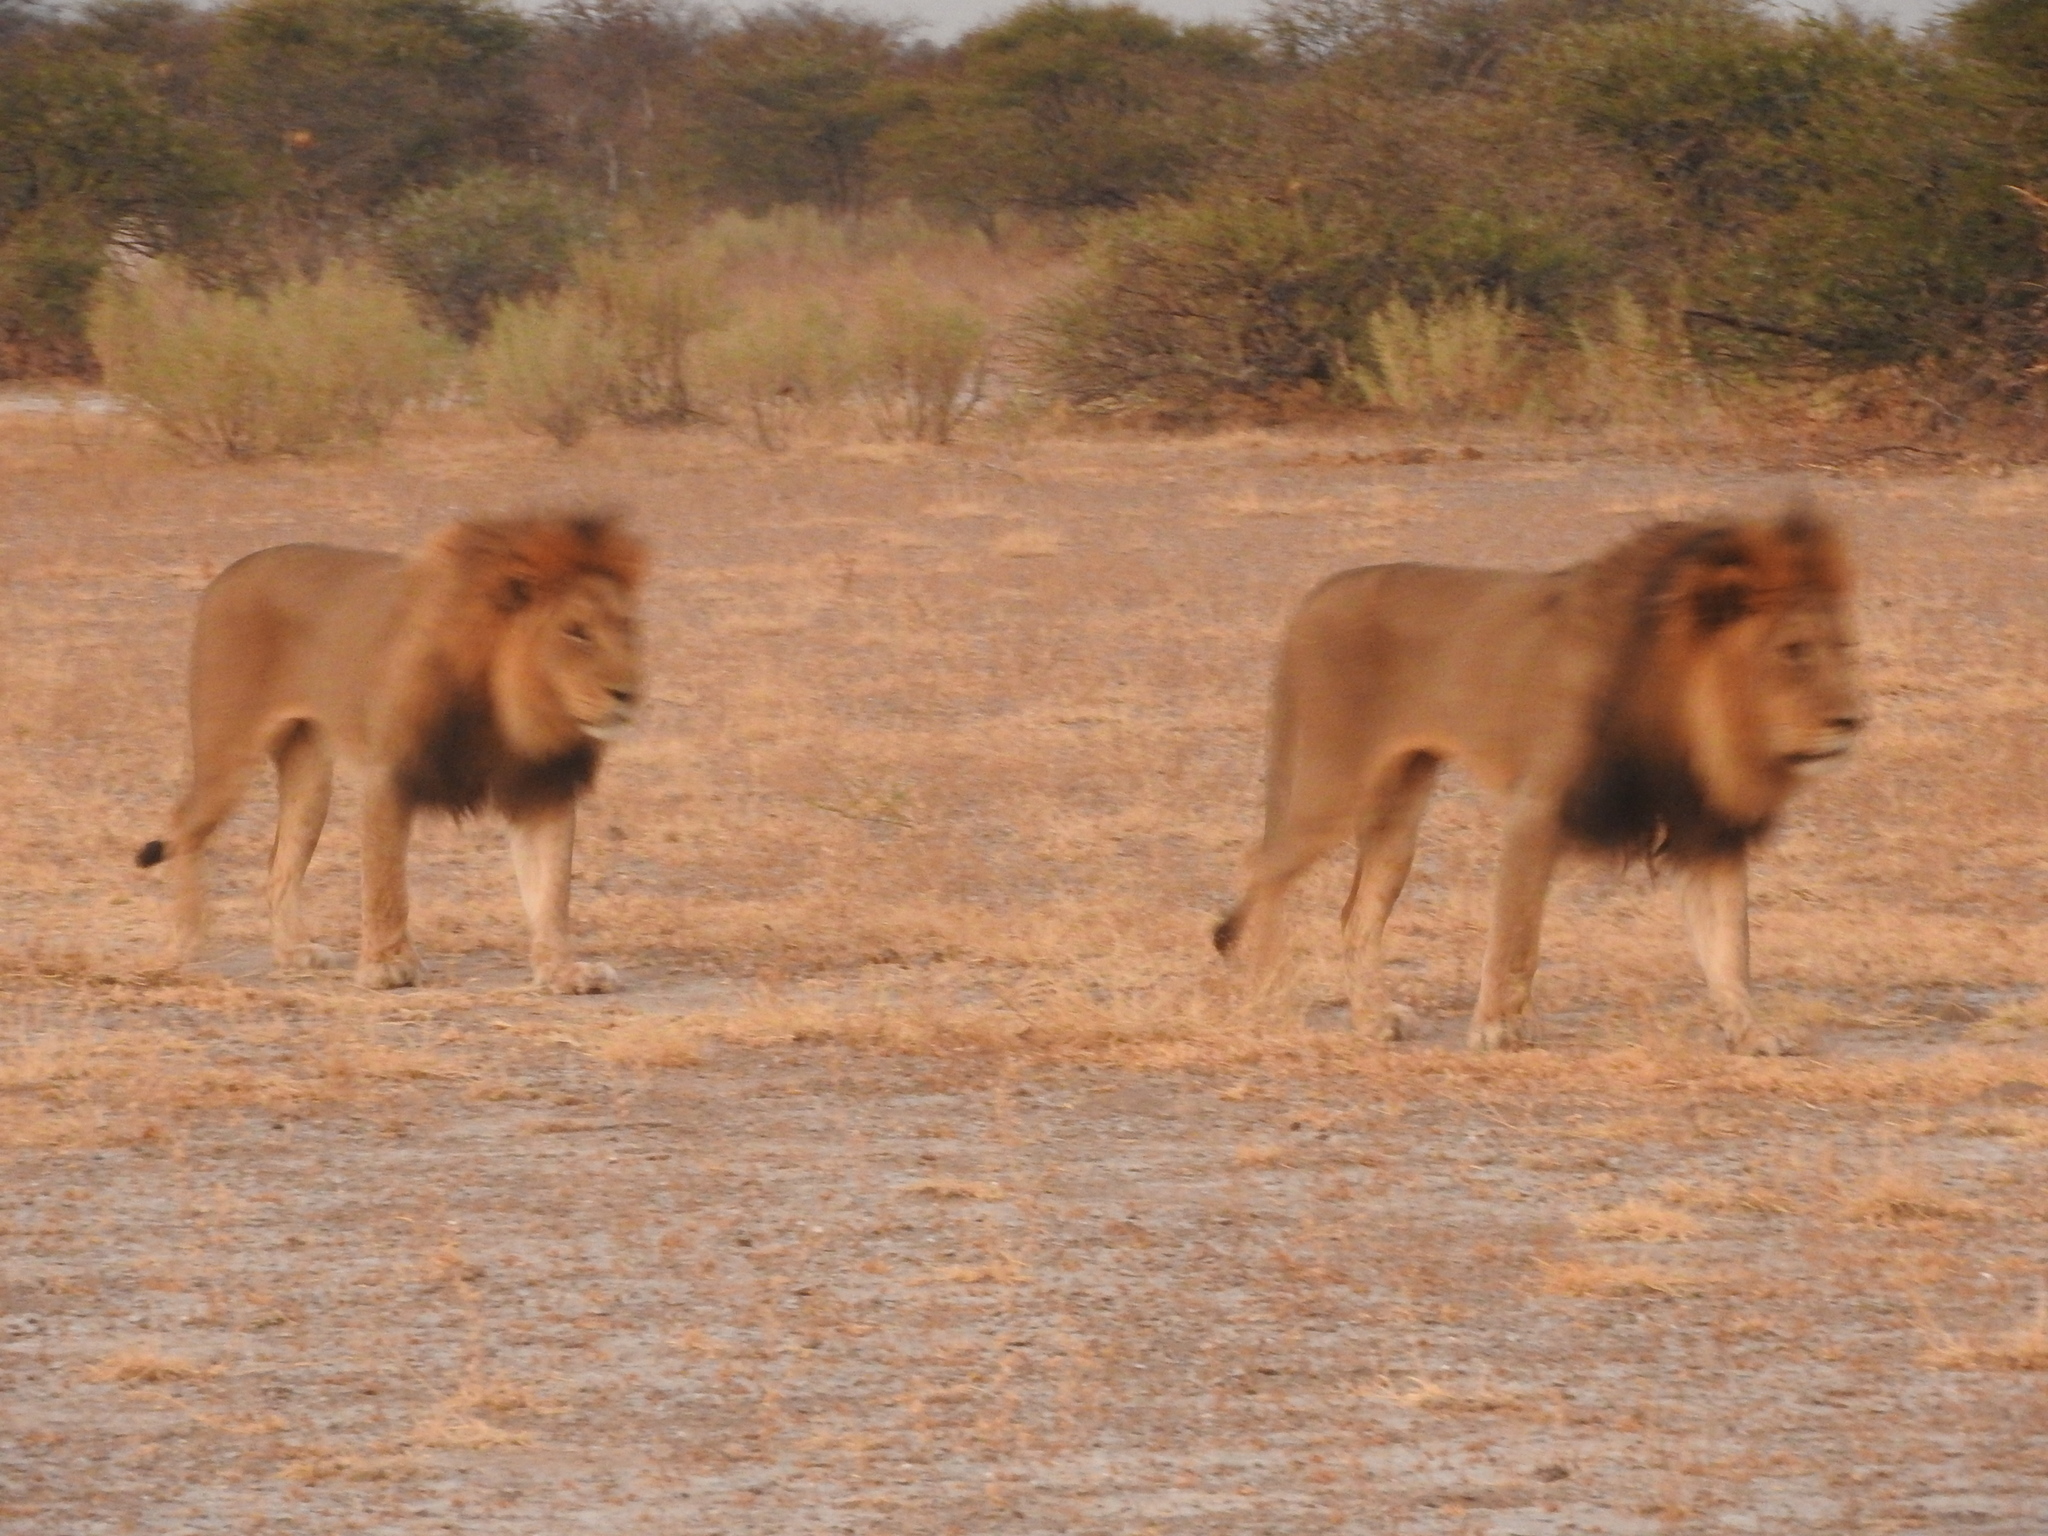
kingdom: Animalia
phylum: Chordata
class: Mammalia
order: Carnivora
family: Felidae
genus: Panthera
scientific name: Panthera leo
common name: Lion
